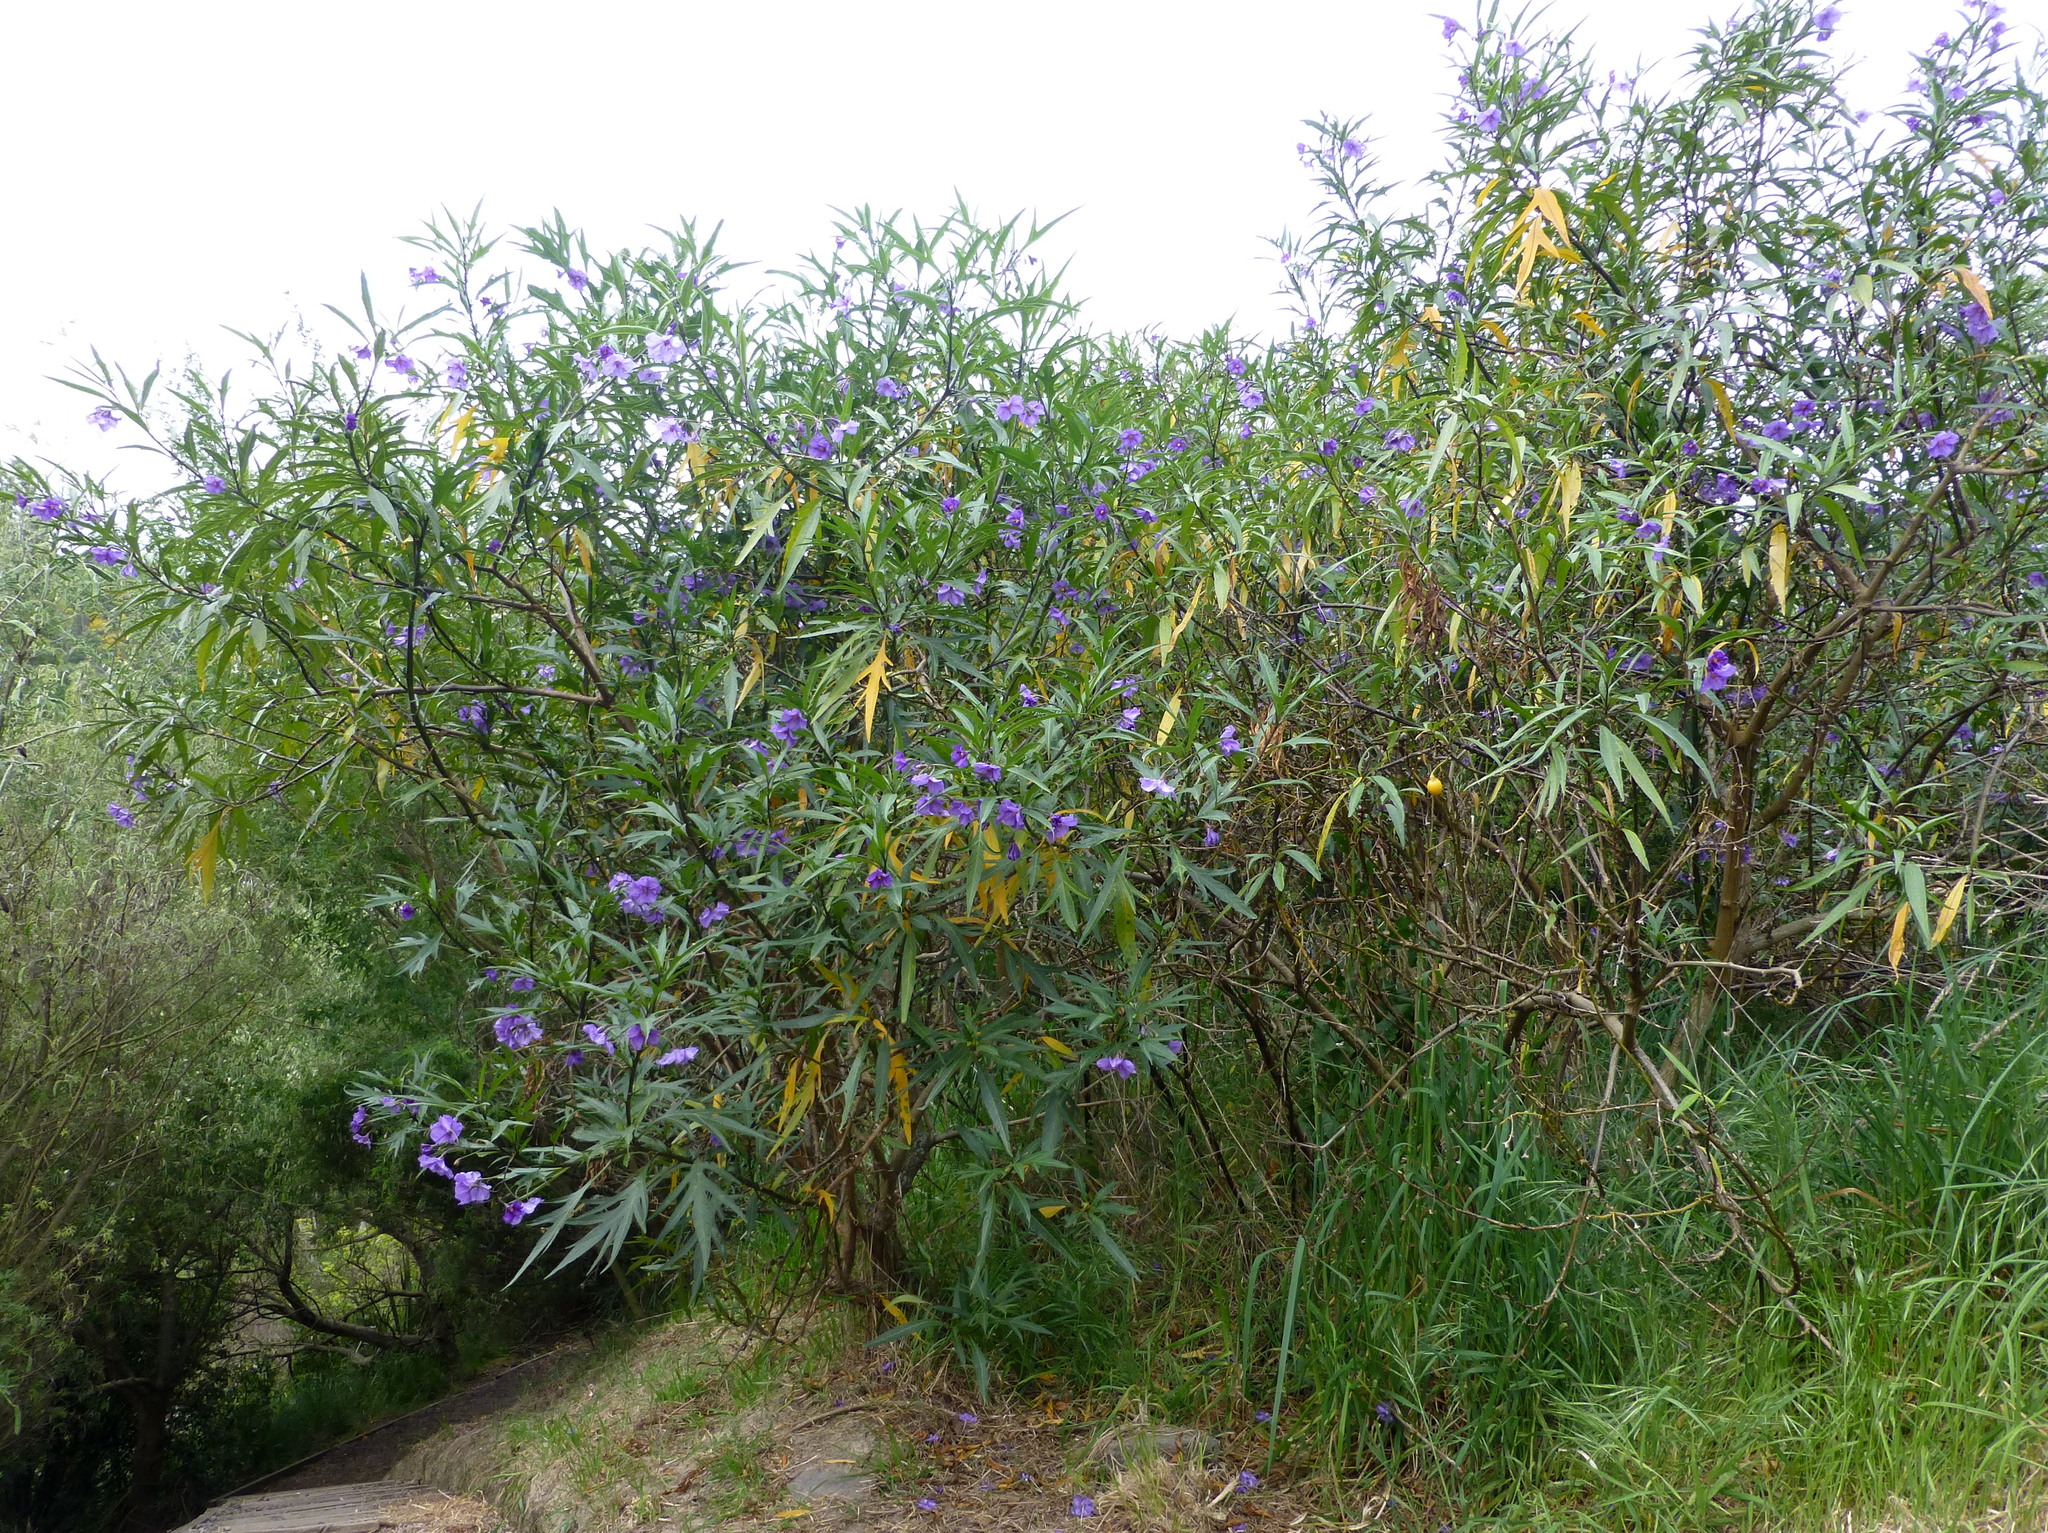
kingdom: Plantae
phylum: Tracheophyta
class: Magnoliopsida
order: Solanales
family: Solanaceae
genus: Solanum
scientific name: Solanum laciniatum
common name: Kangaroo-apple
